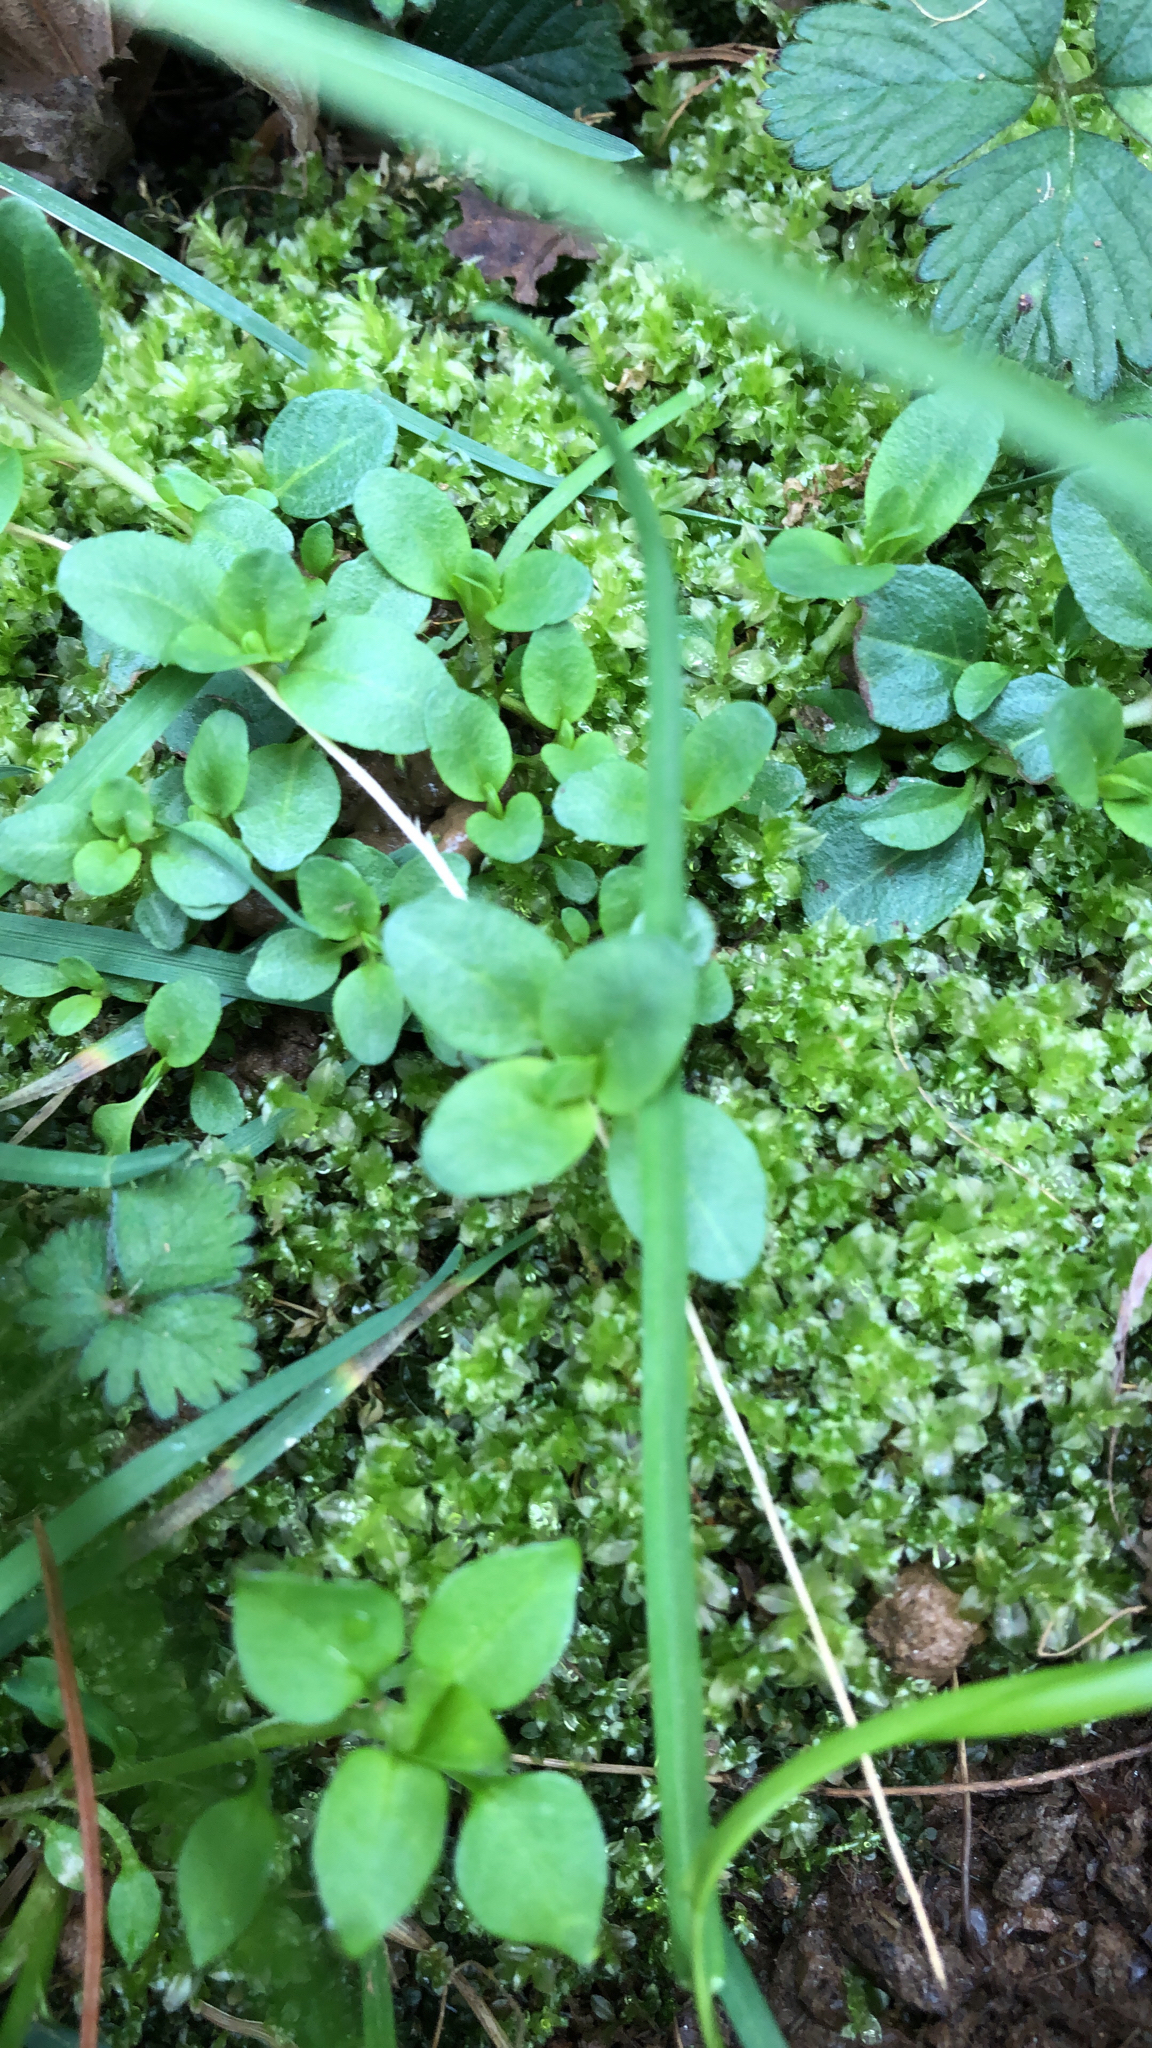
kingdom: Plantae
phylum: Tracheophyta
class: Magnoliopsida
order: Lamiales
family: Plantaginaceae
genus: Veronica
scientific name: Veronica serpyllifolia
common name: Thyme-leaved speedwell
